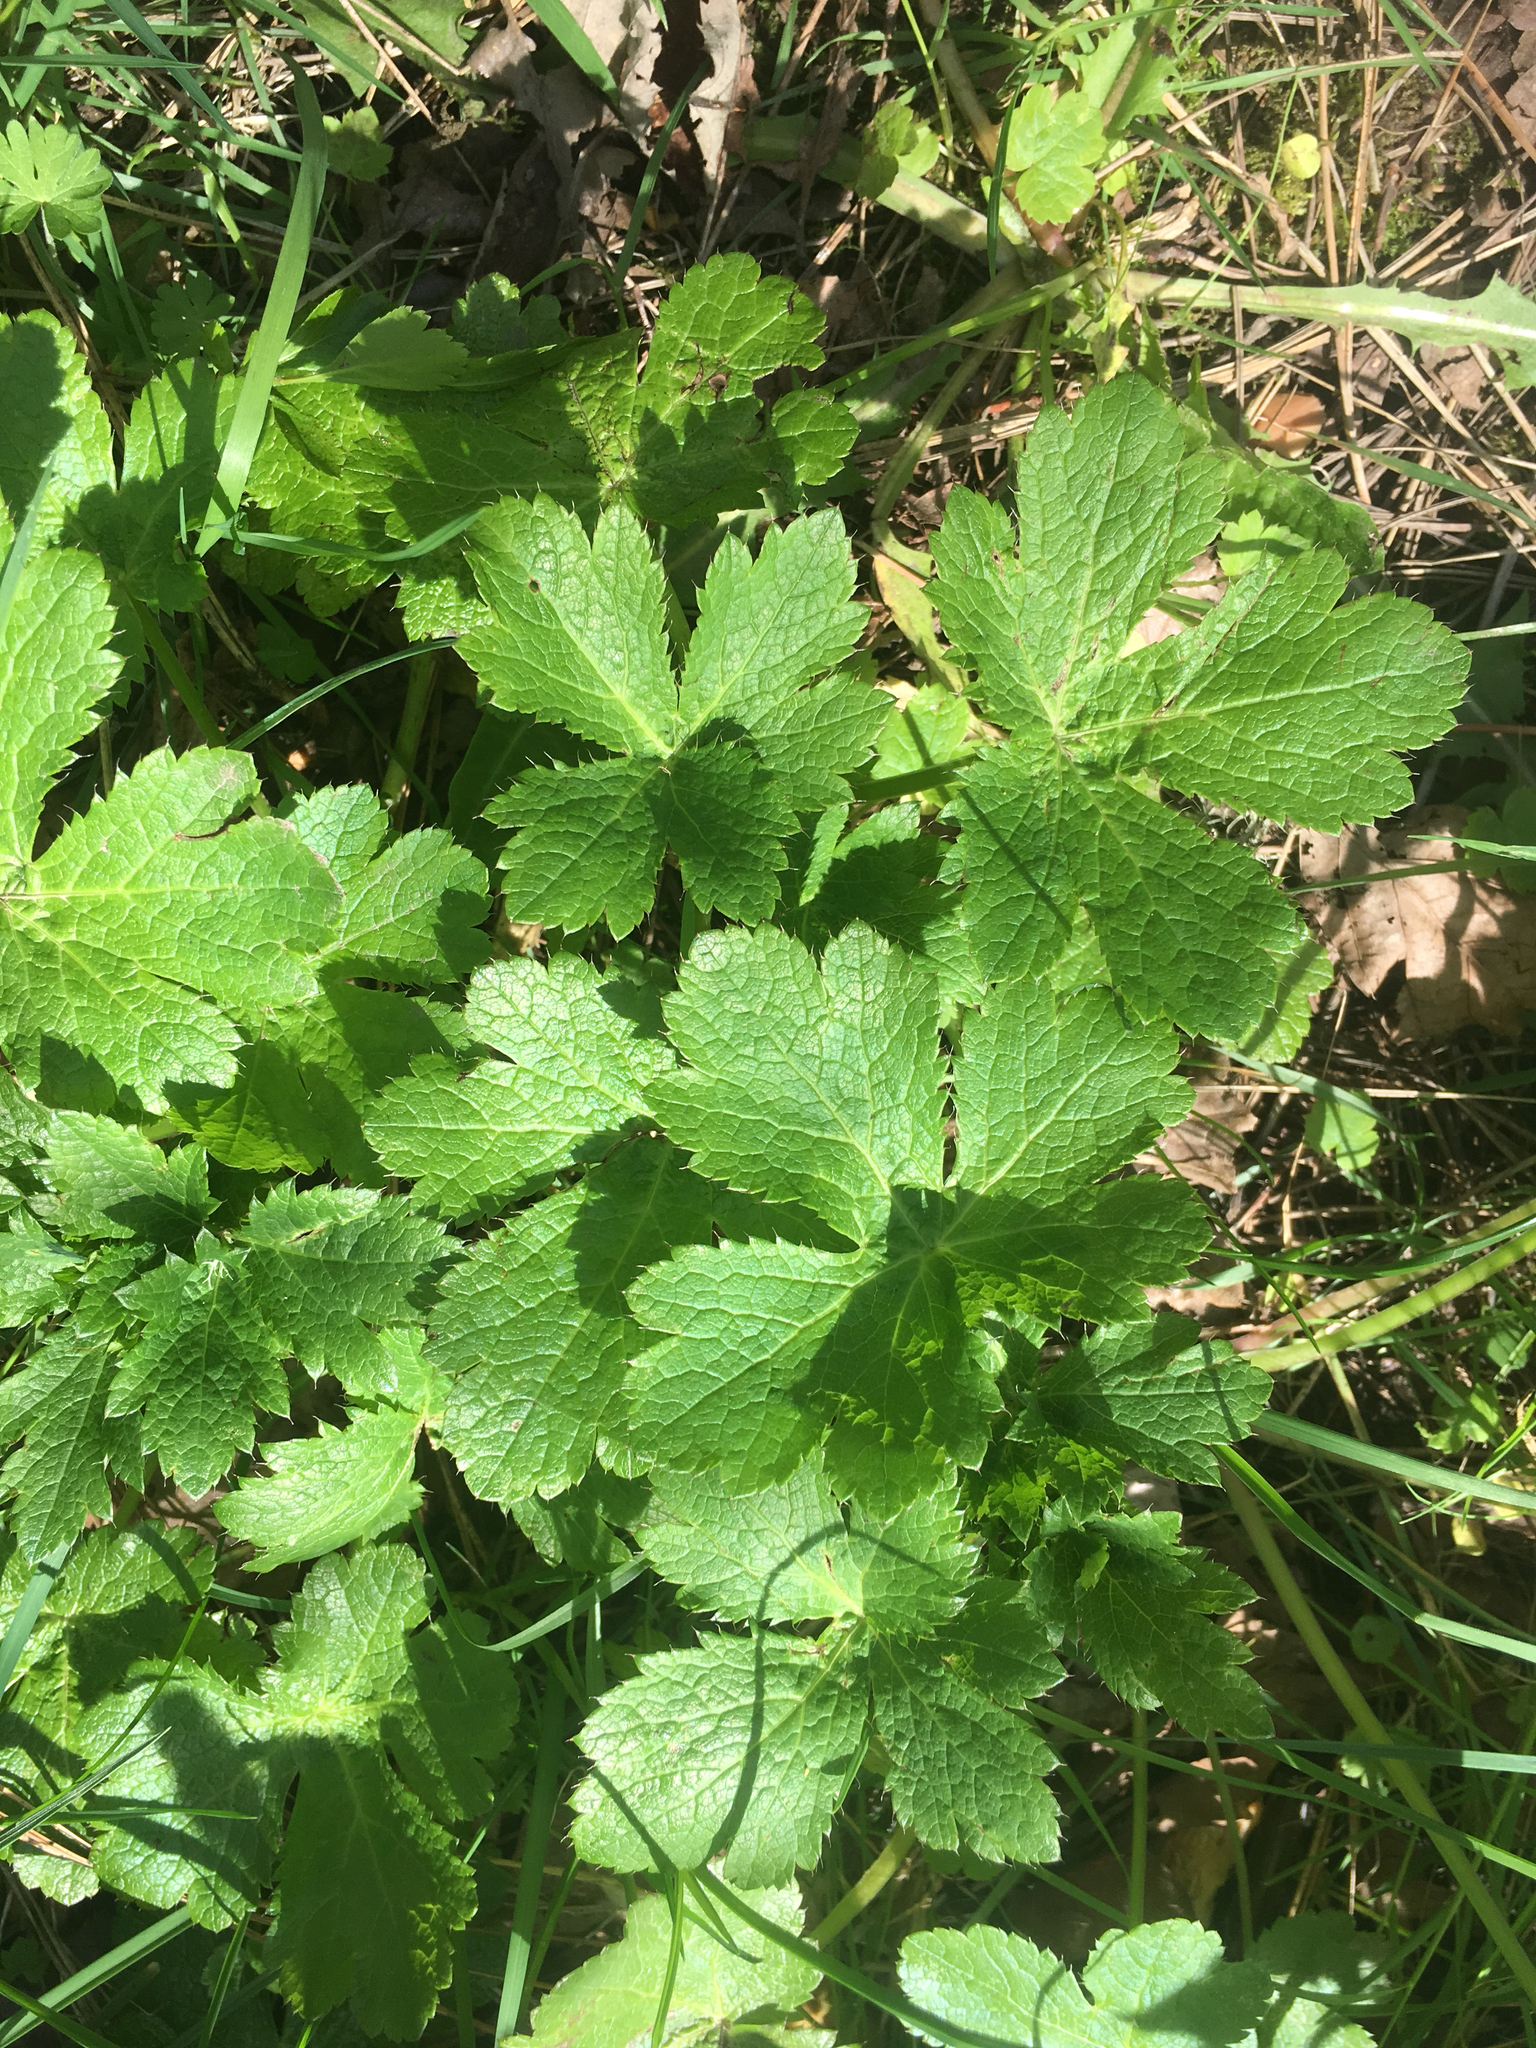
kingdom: Plantae
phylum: Tracheophyta
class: Magnoliopsida
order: Apiales
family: Apiaceae
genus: Sanicula
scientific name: Sanicula crassicaulis
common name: Western snakeroot
